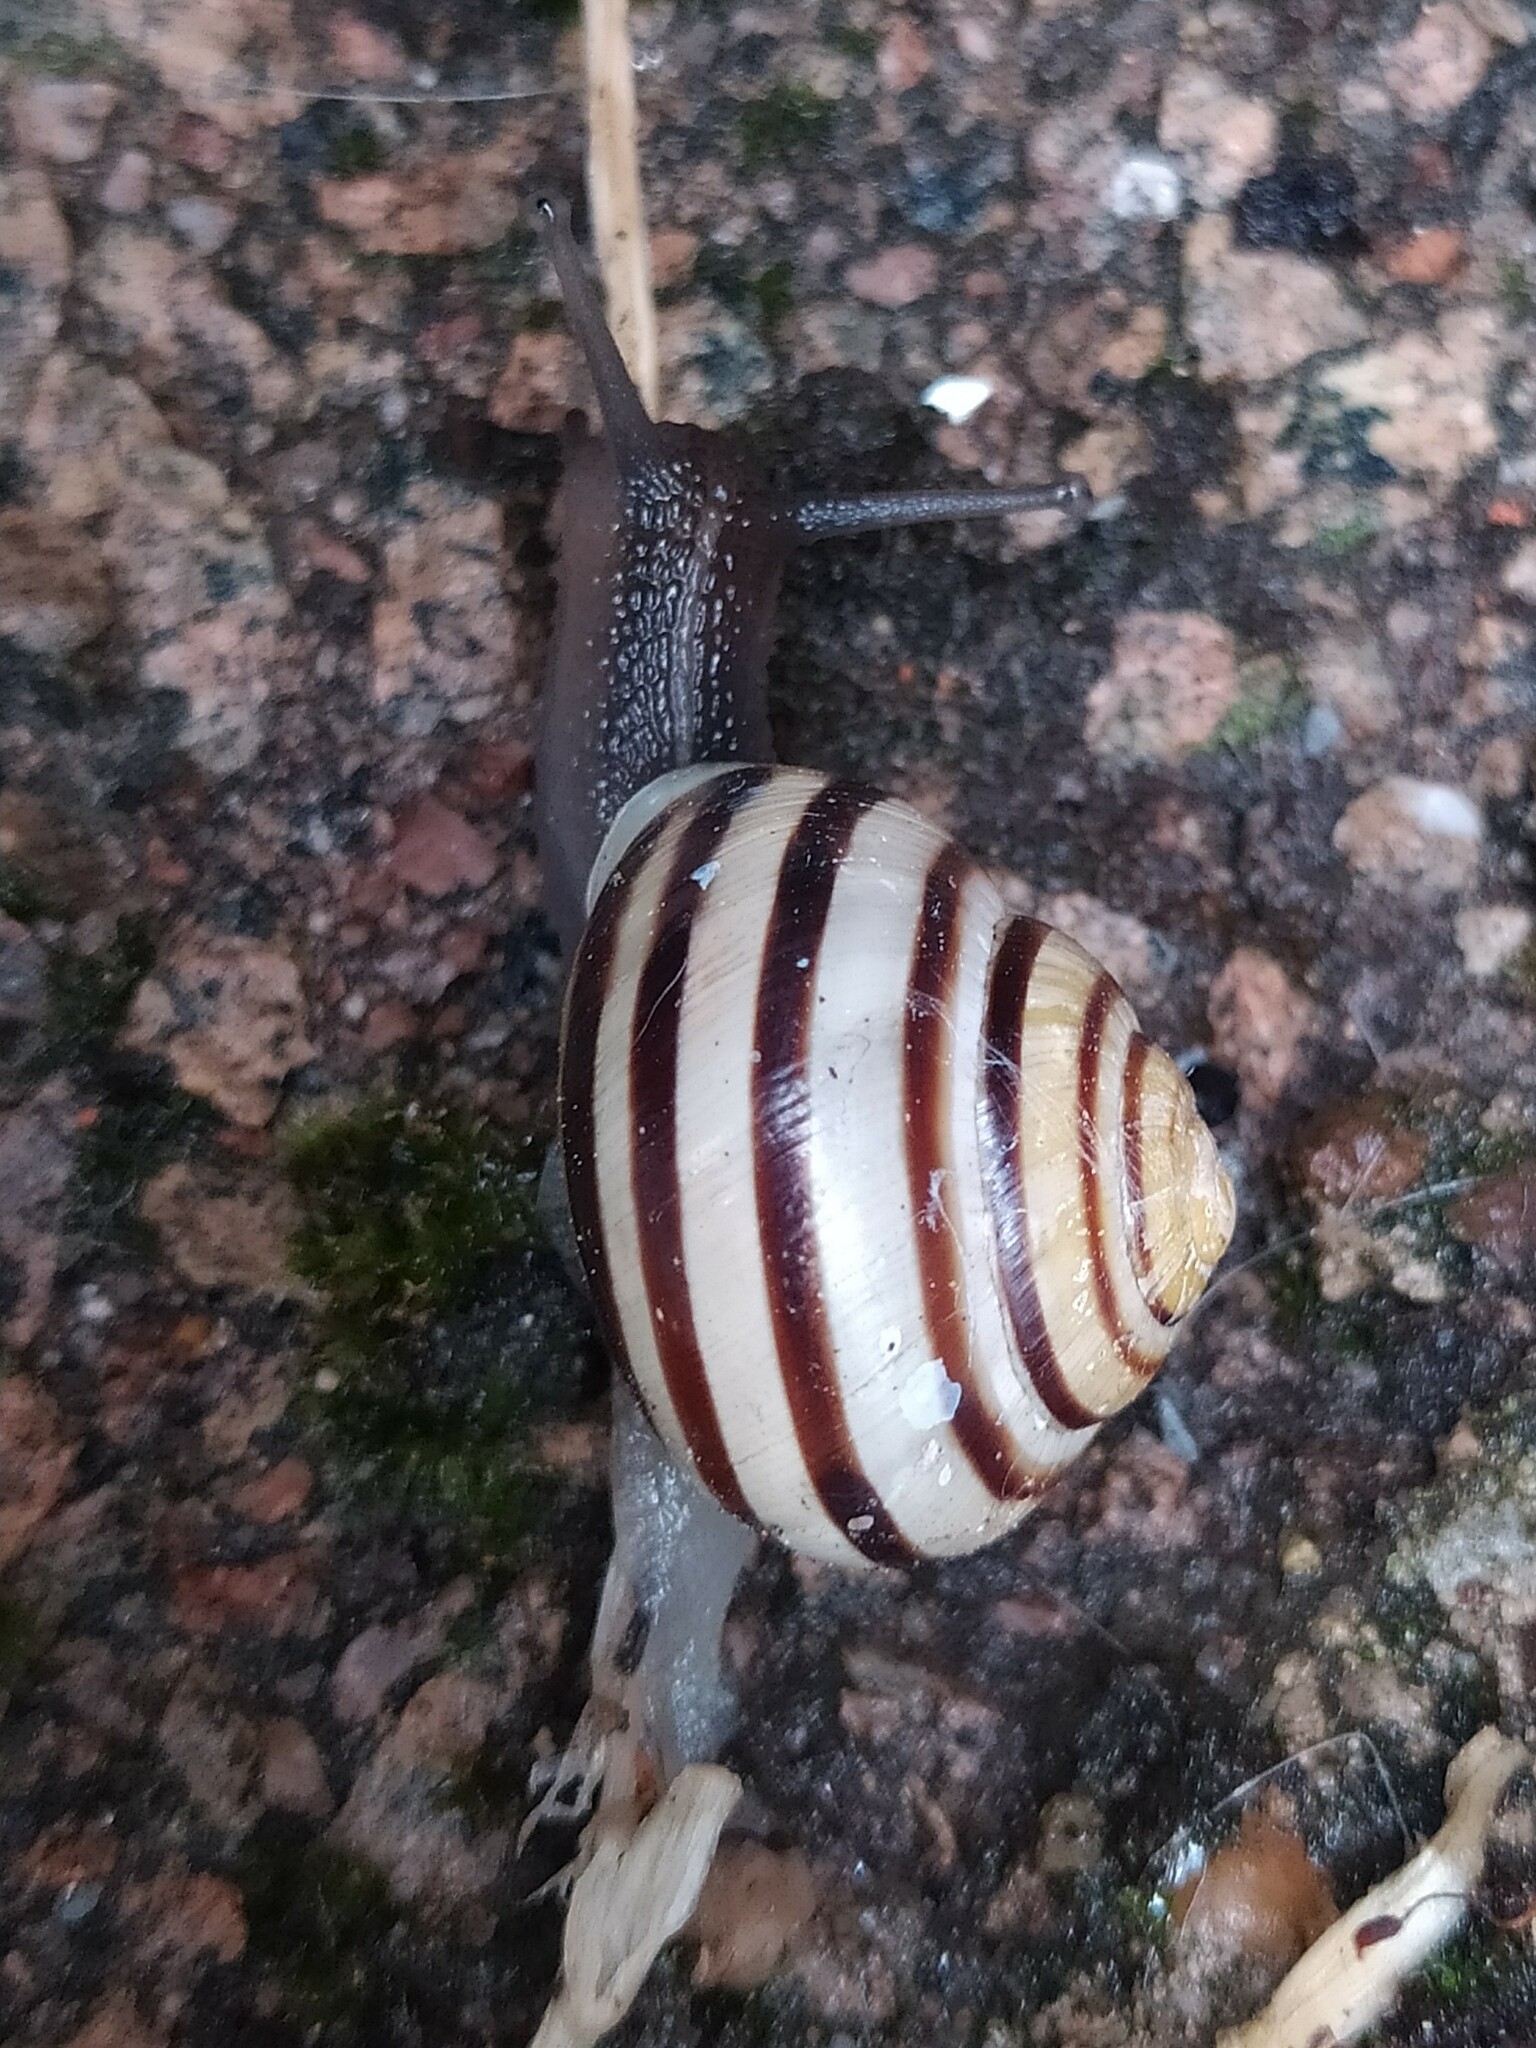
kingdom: Animalia
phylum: Mollusca
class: Gastropoda
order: Stylommatophora
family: Helicidae
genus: Cepaea
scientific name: Cepaea hortensis
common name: White-lip gardensnail
